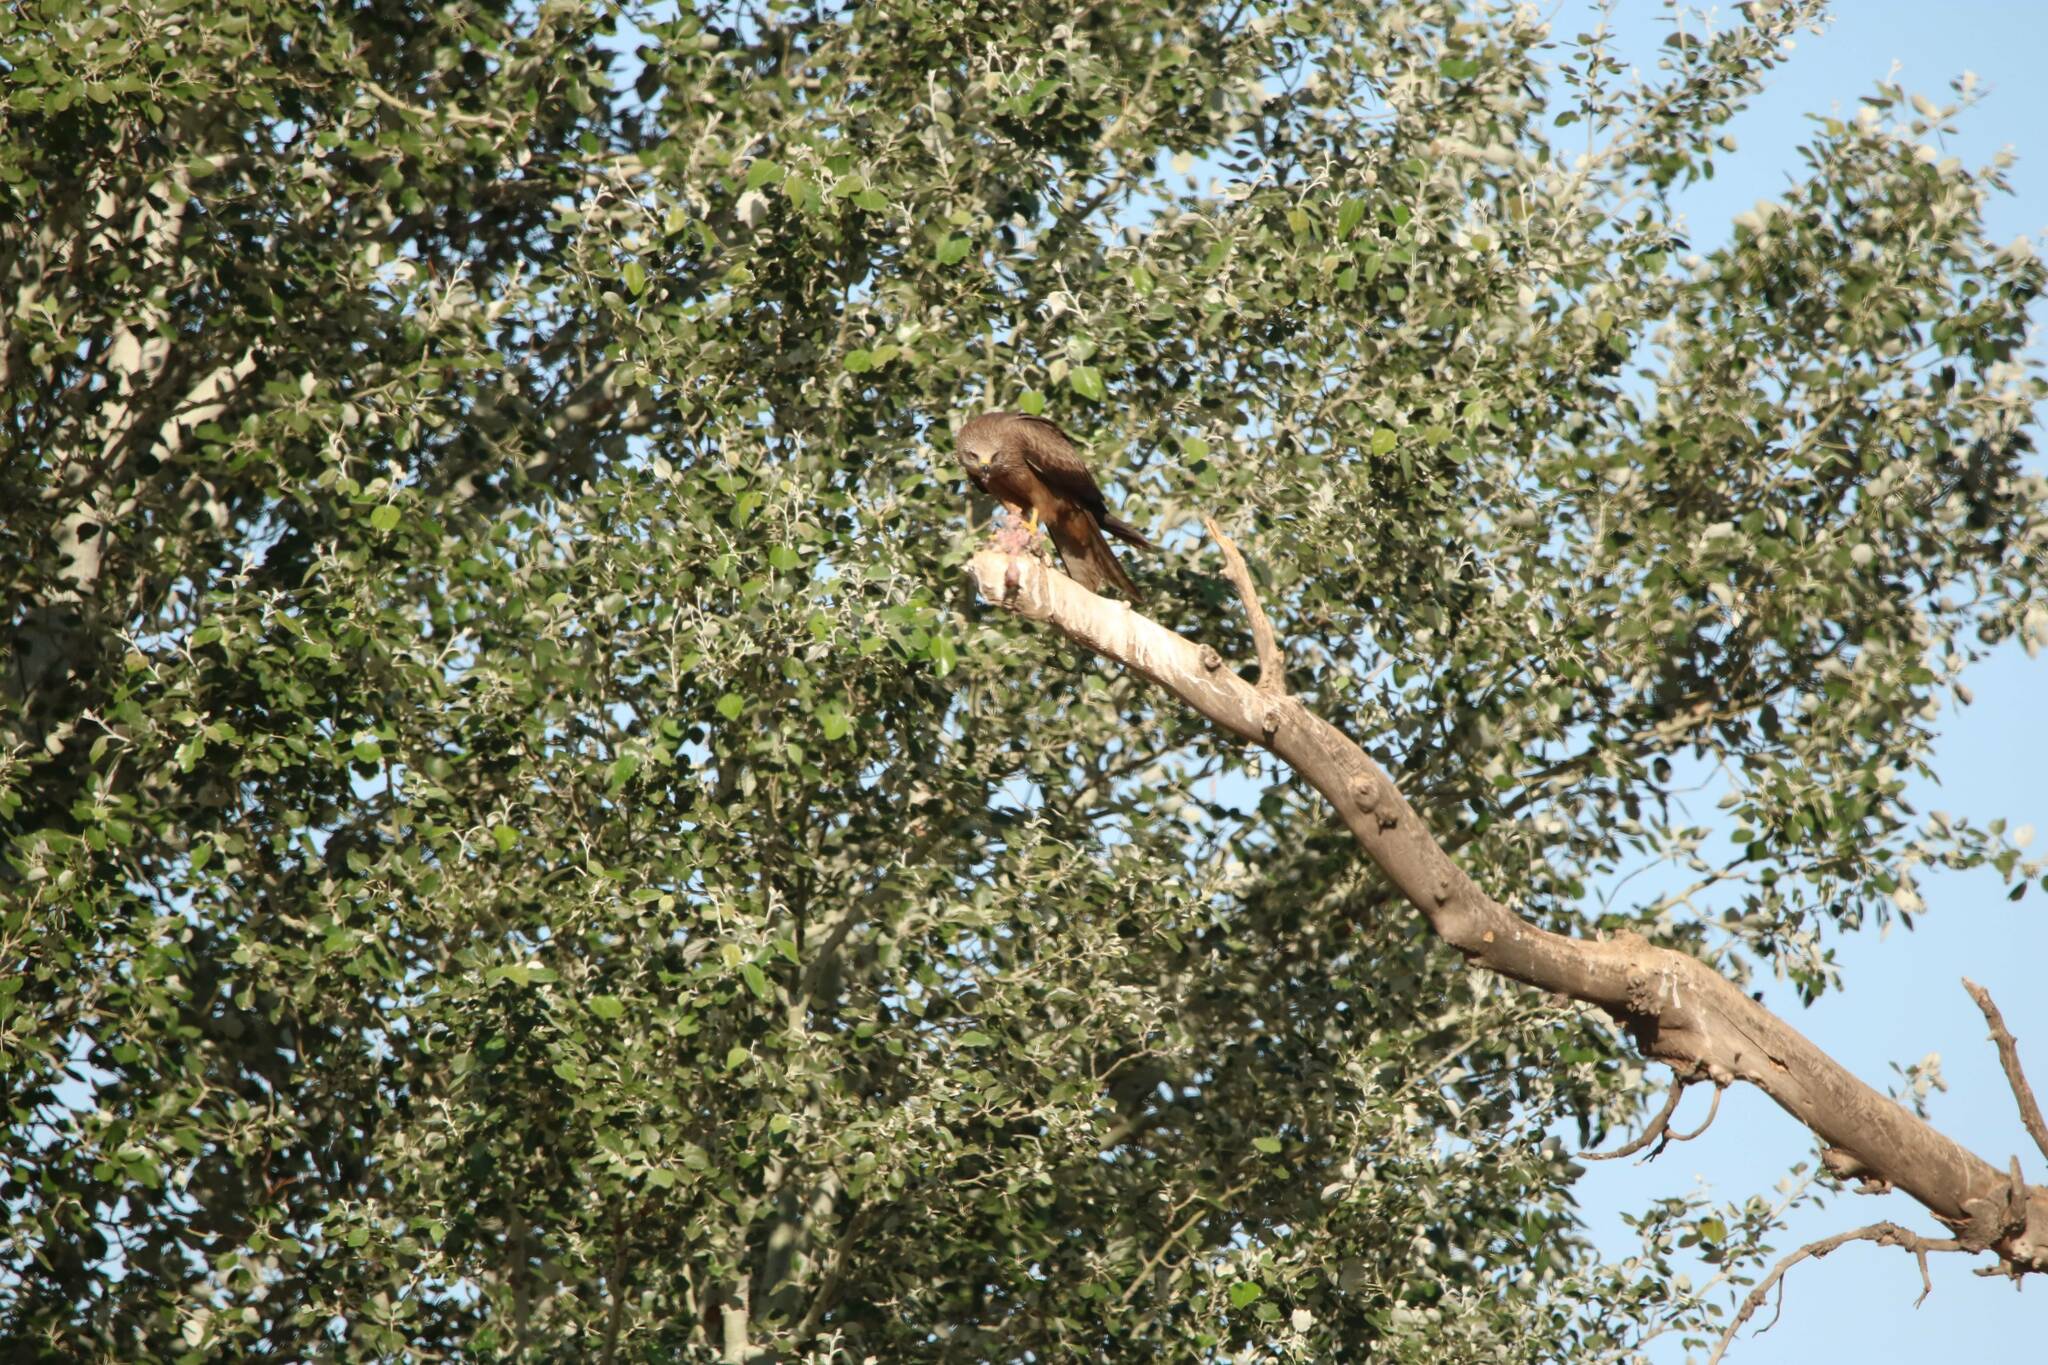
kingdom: Animalia
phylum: Chordata
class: Aves
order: Accipitriformes
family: Accipitridae
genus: Milvus
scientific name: Milvus migrans
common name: Black kite
